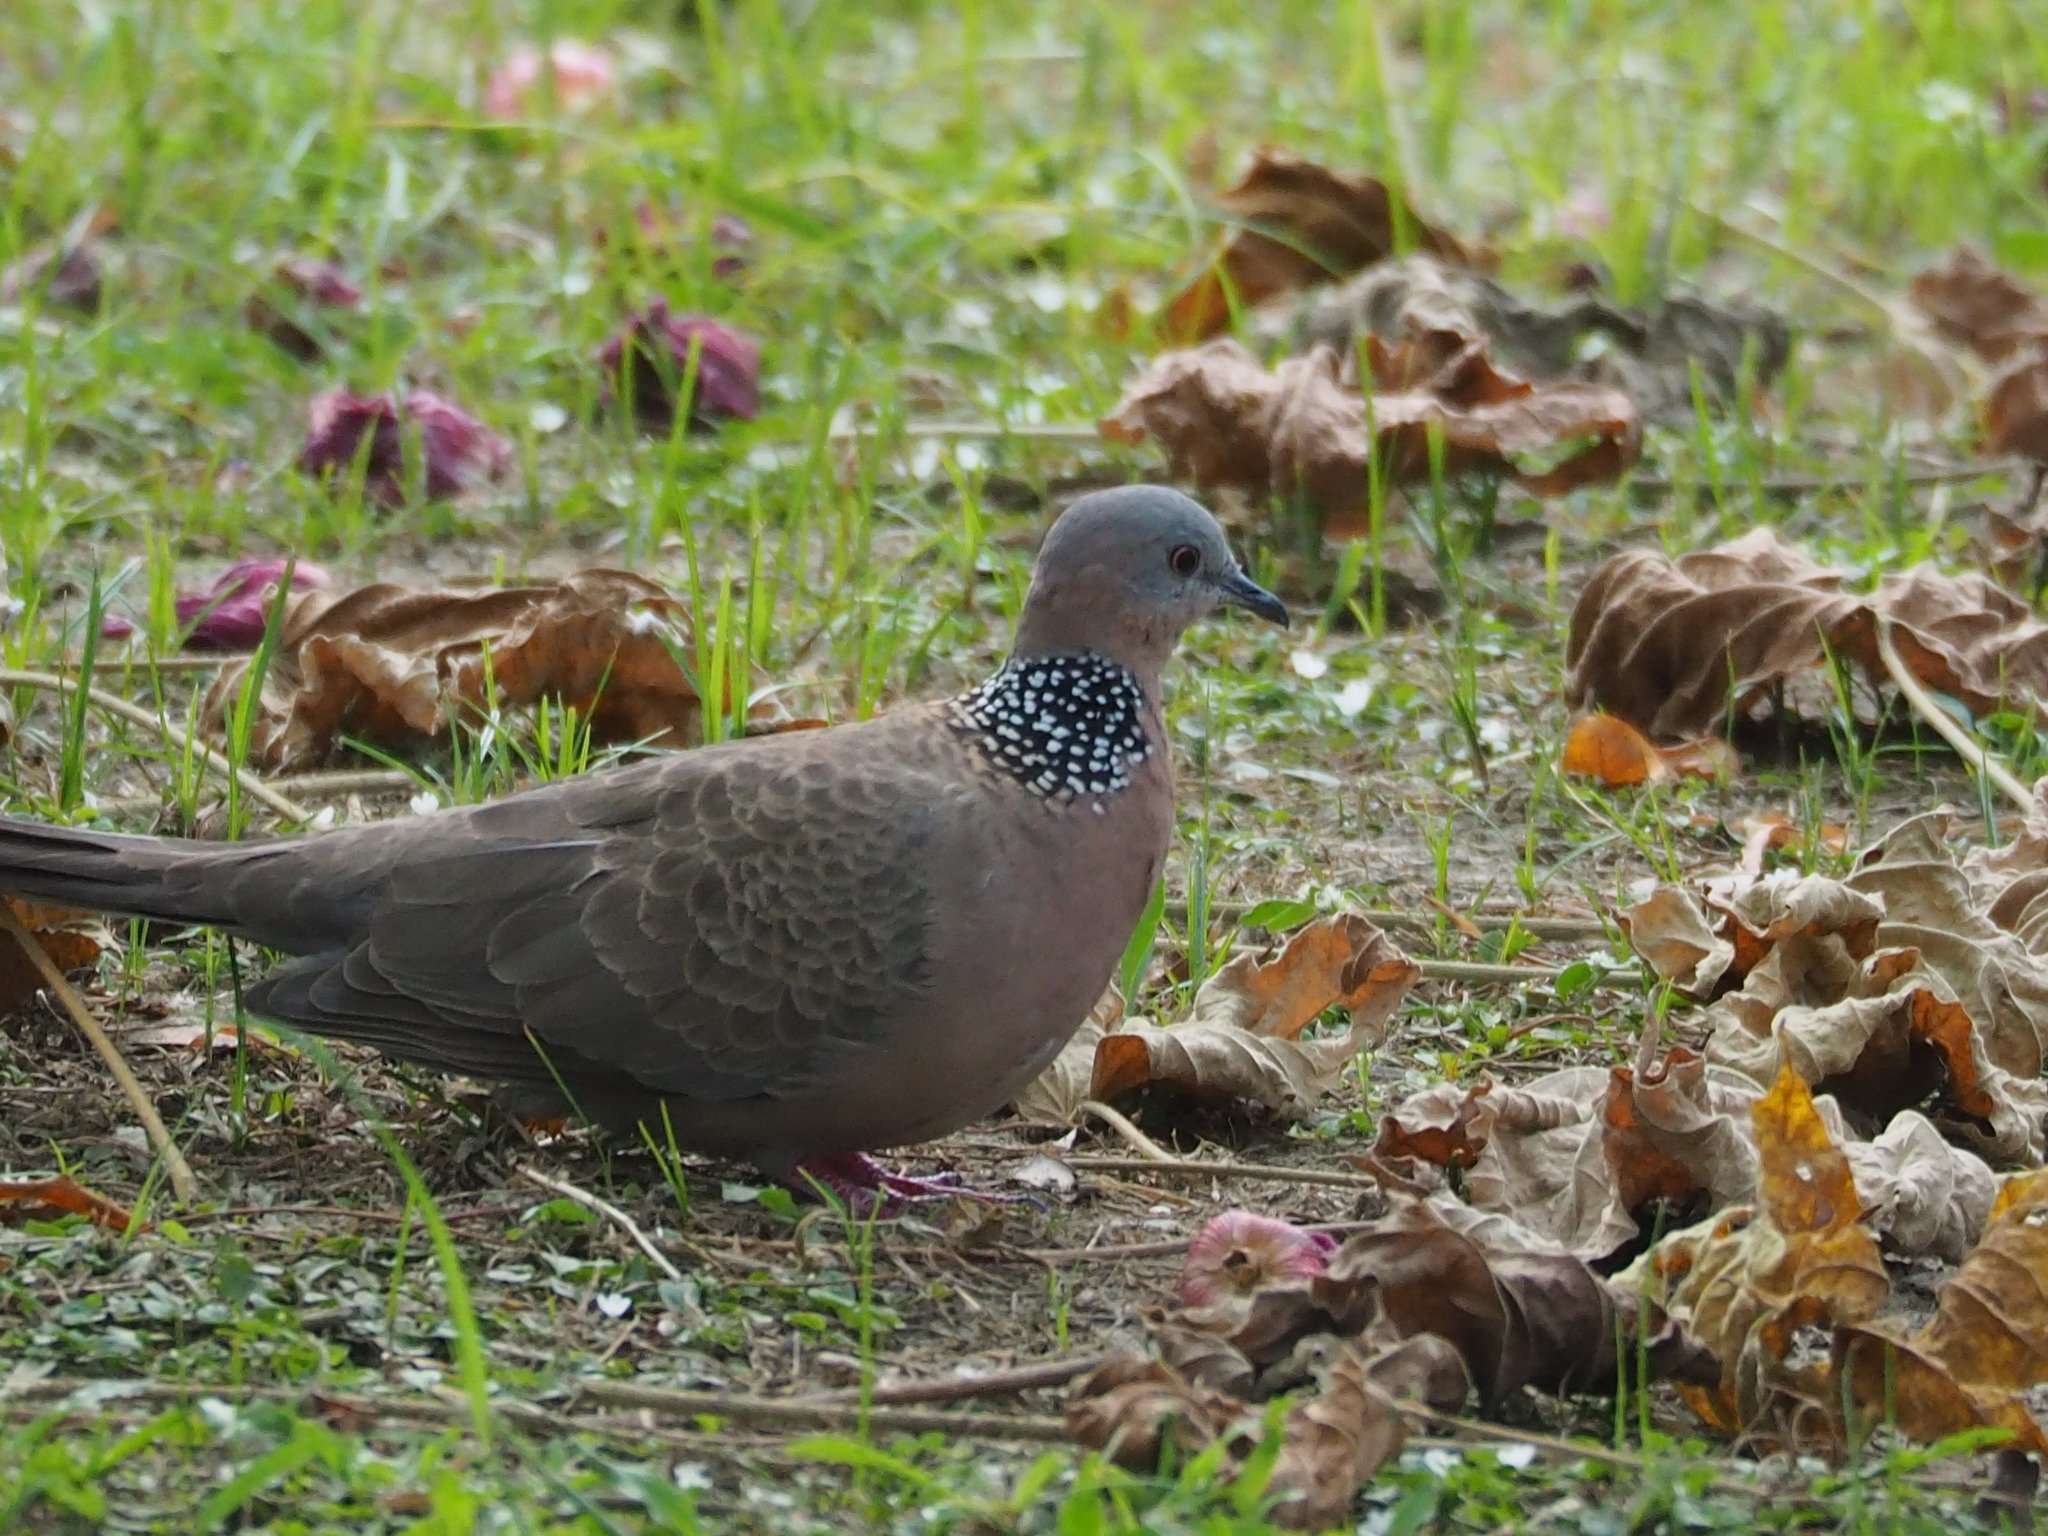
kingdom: Animalia
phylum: Chordata
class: Aves
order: Columbiformes
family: Columbidae
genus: Spilopelia
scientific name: Spilopelia chinensis
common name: Spotted dove
